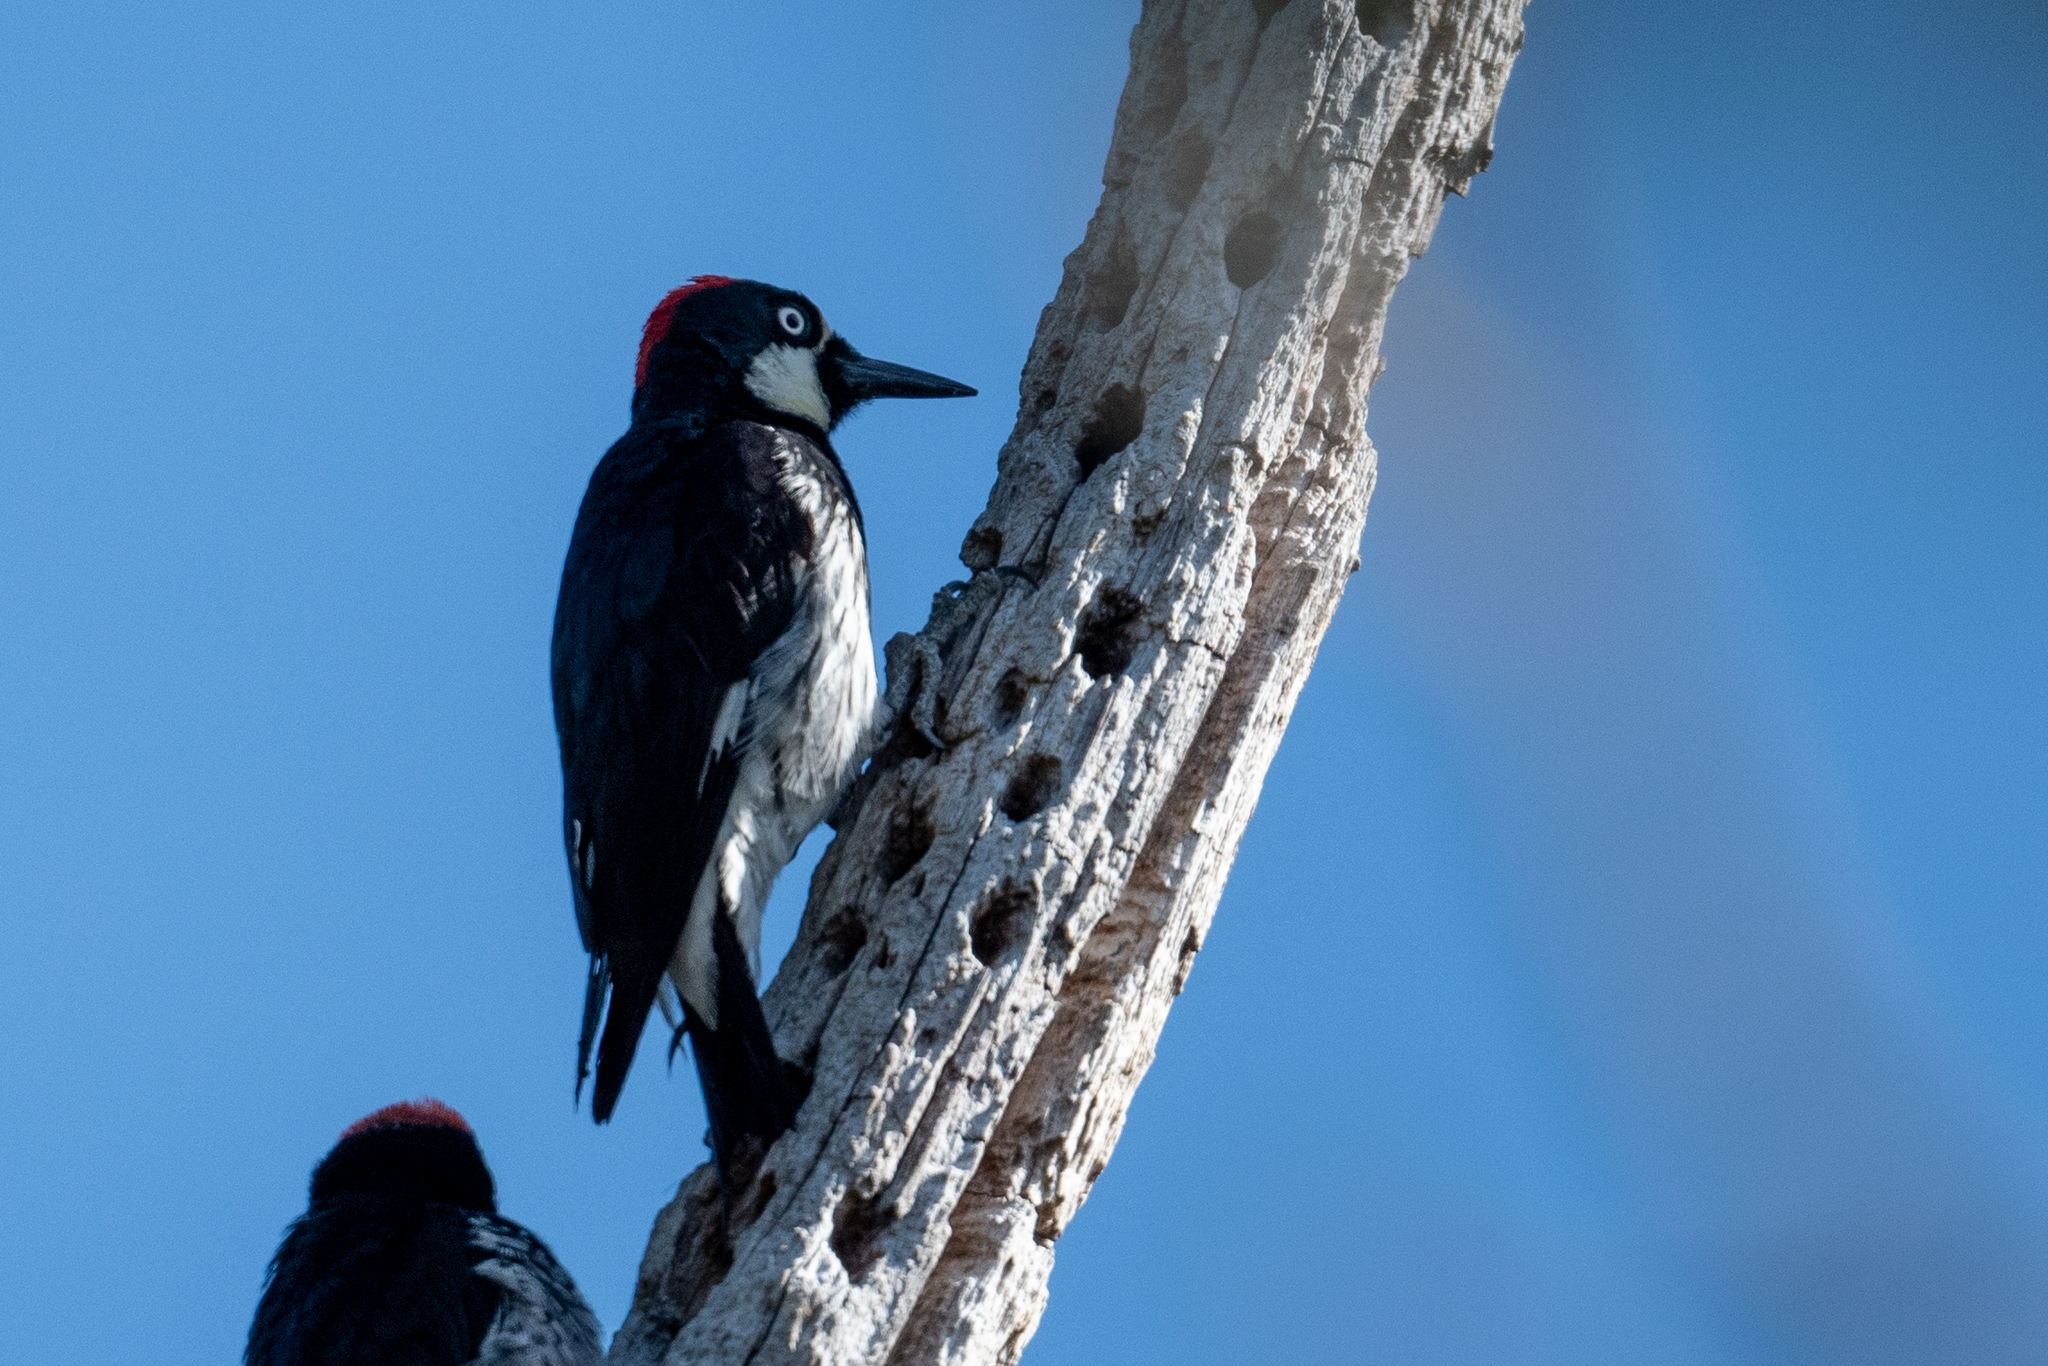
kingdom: Animalia
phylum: Chordata
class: Aves
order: Piciformes
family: Picidae
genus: Melanerpes
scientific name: Melanerpes formicivorus
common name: Acorn woodpecker
